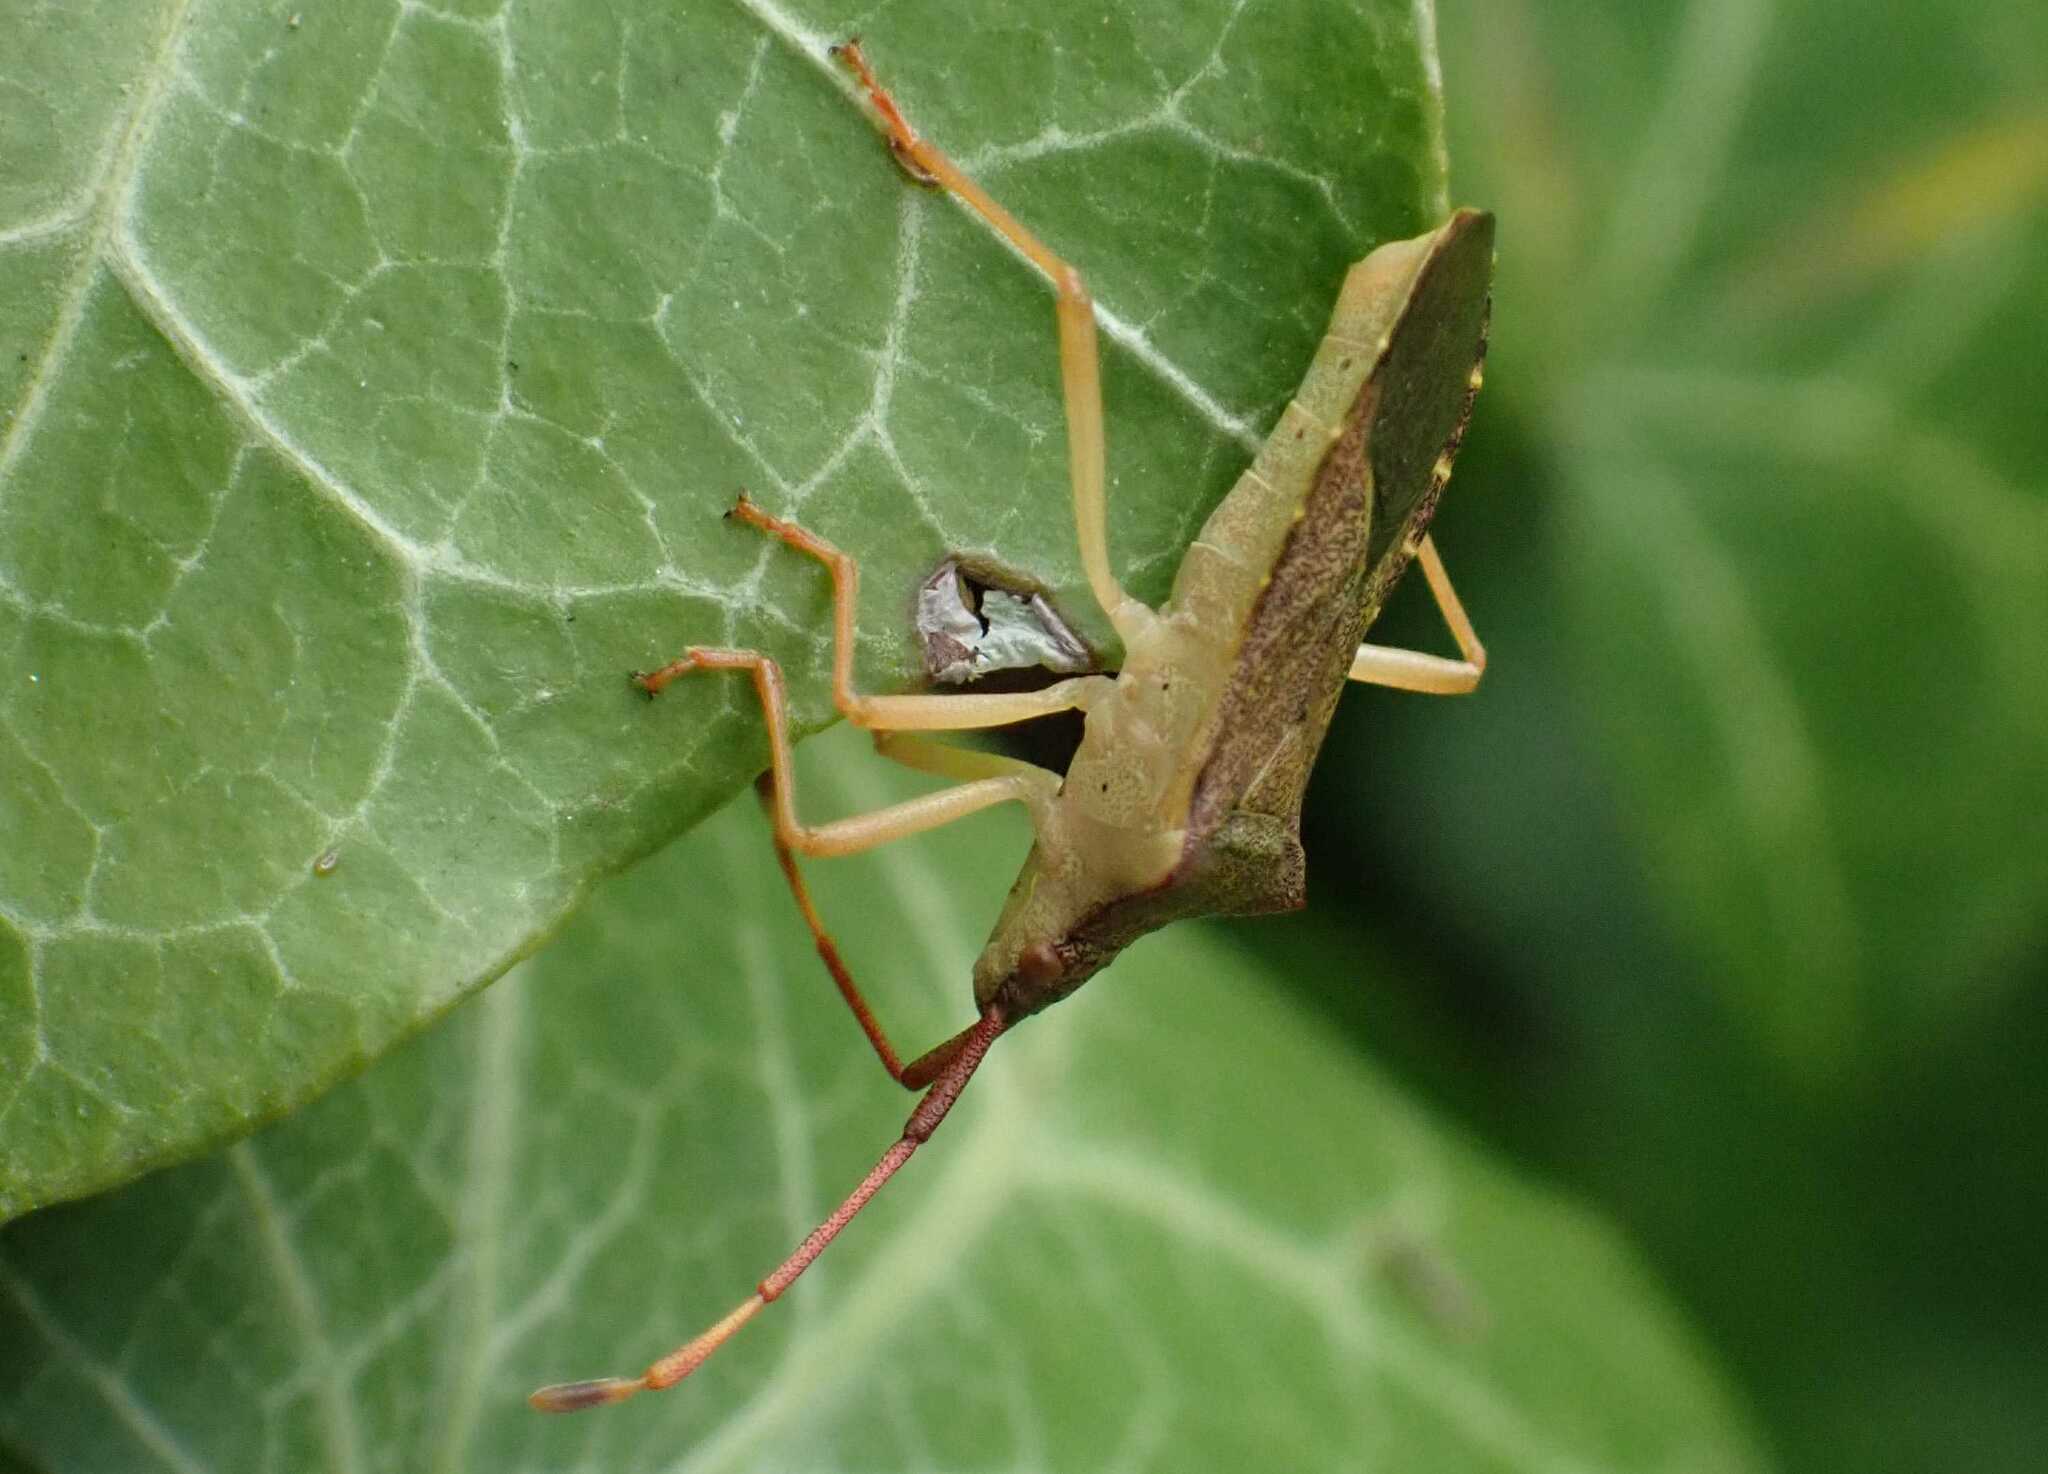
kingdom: Animalia
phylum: Arthropoda
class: Insecta
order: Hemiptera
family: Coreidae
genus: Gonocerus
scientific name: Gonocerus acuteangulatus
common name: Box bug
